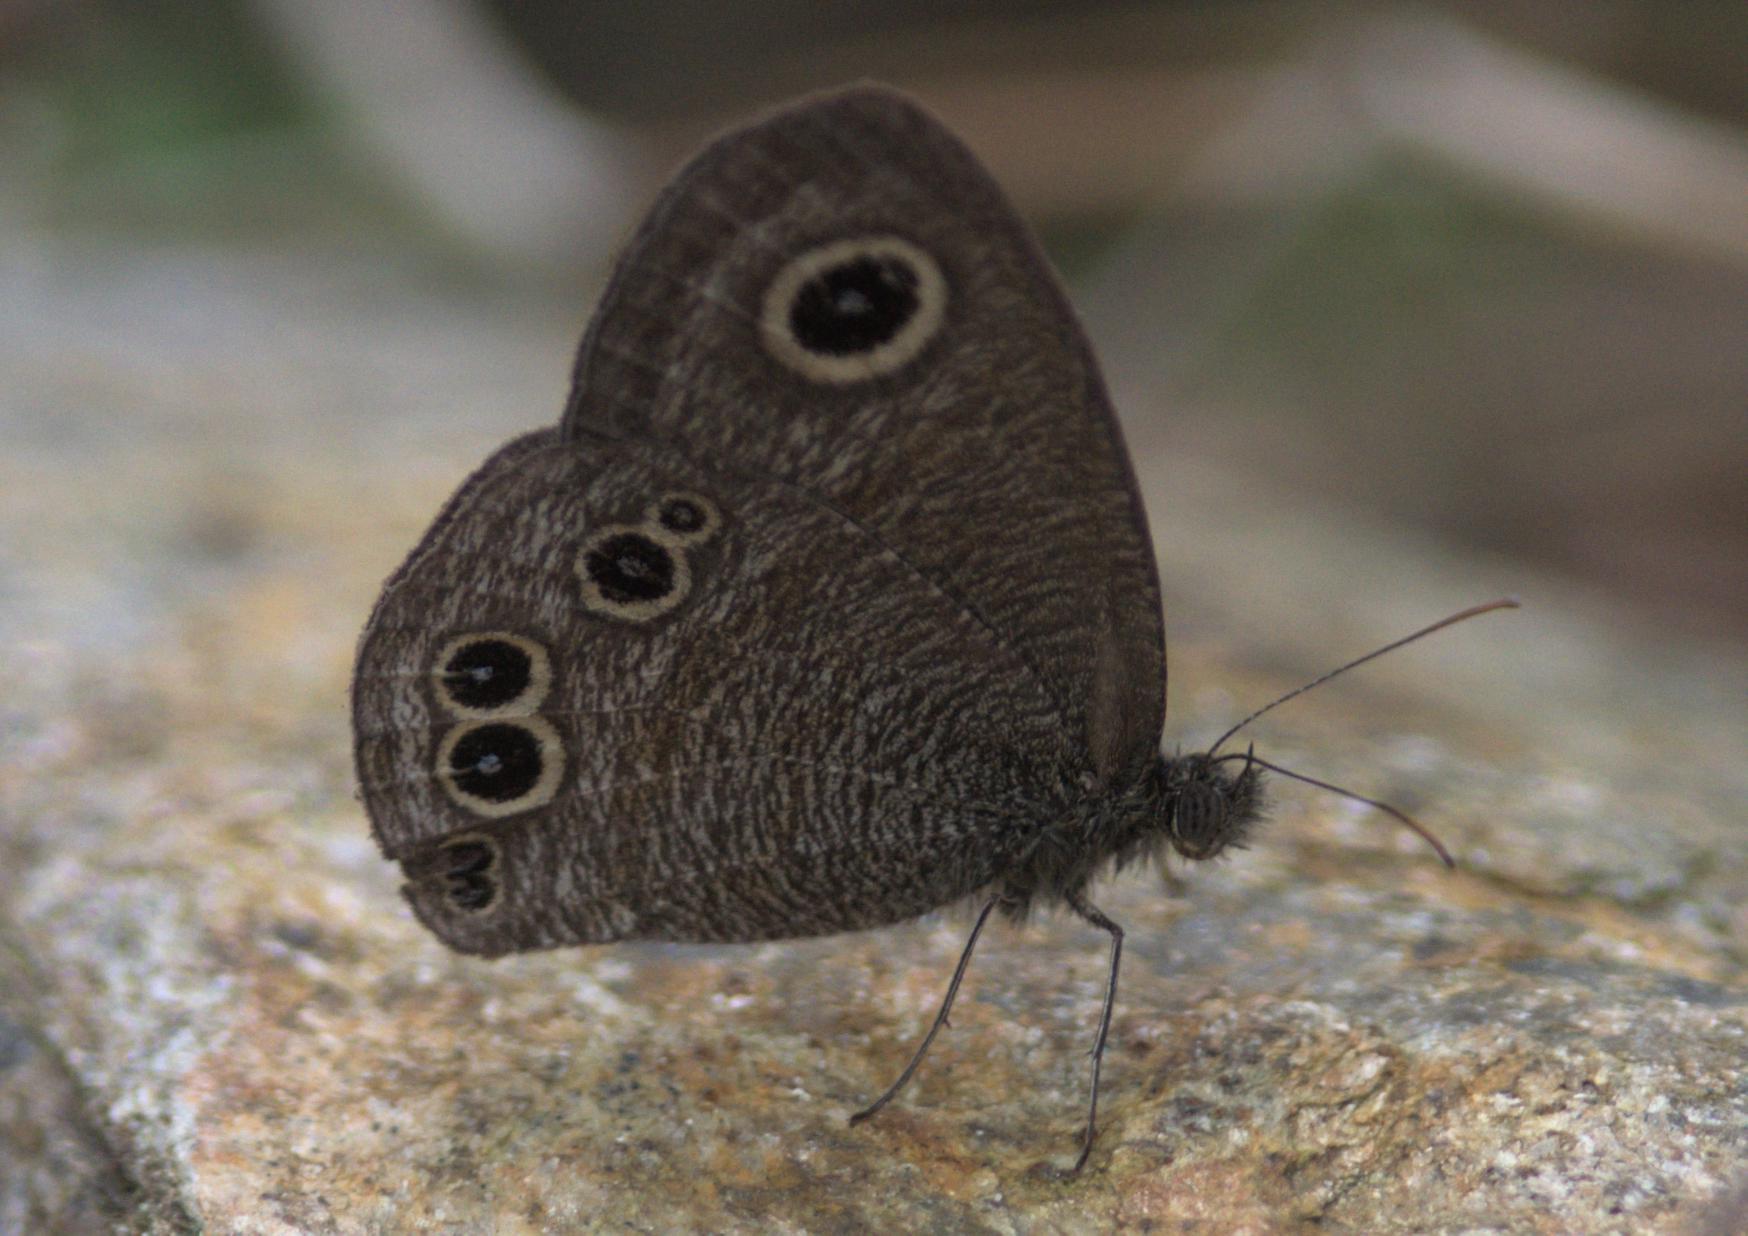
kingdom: Animalia
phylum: Arthropoda
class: Insecta
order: Lepidoptera
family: Nymphalidae
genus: Ypthima
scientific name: Ypthima baldus
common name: Common five-ring
